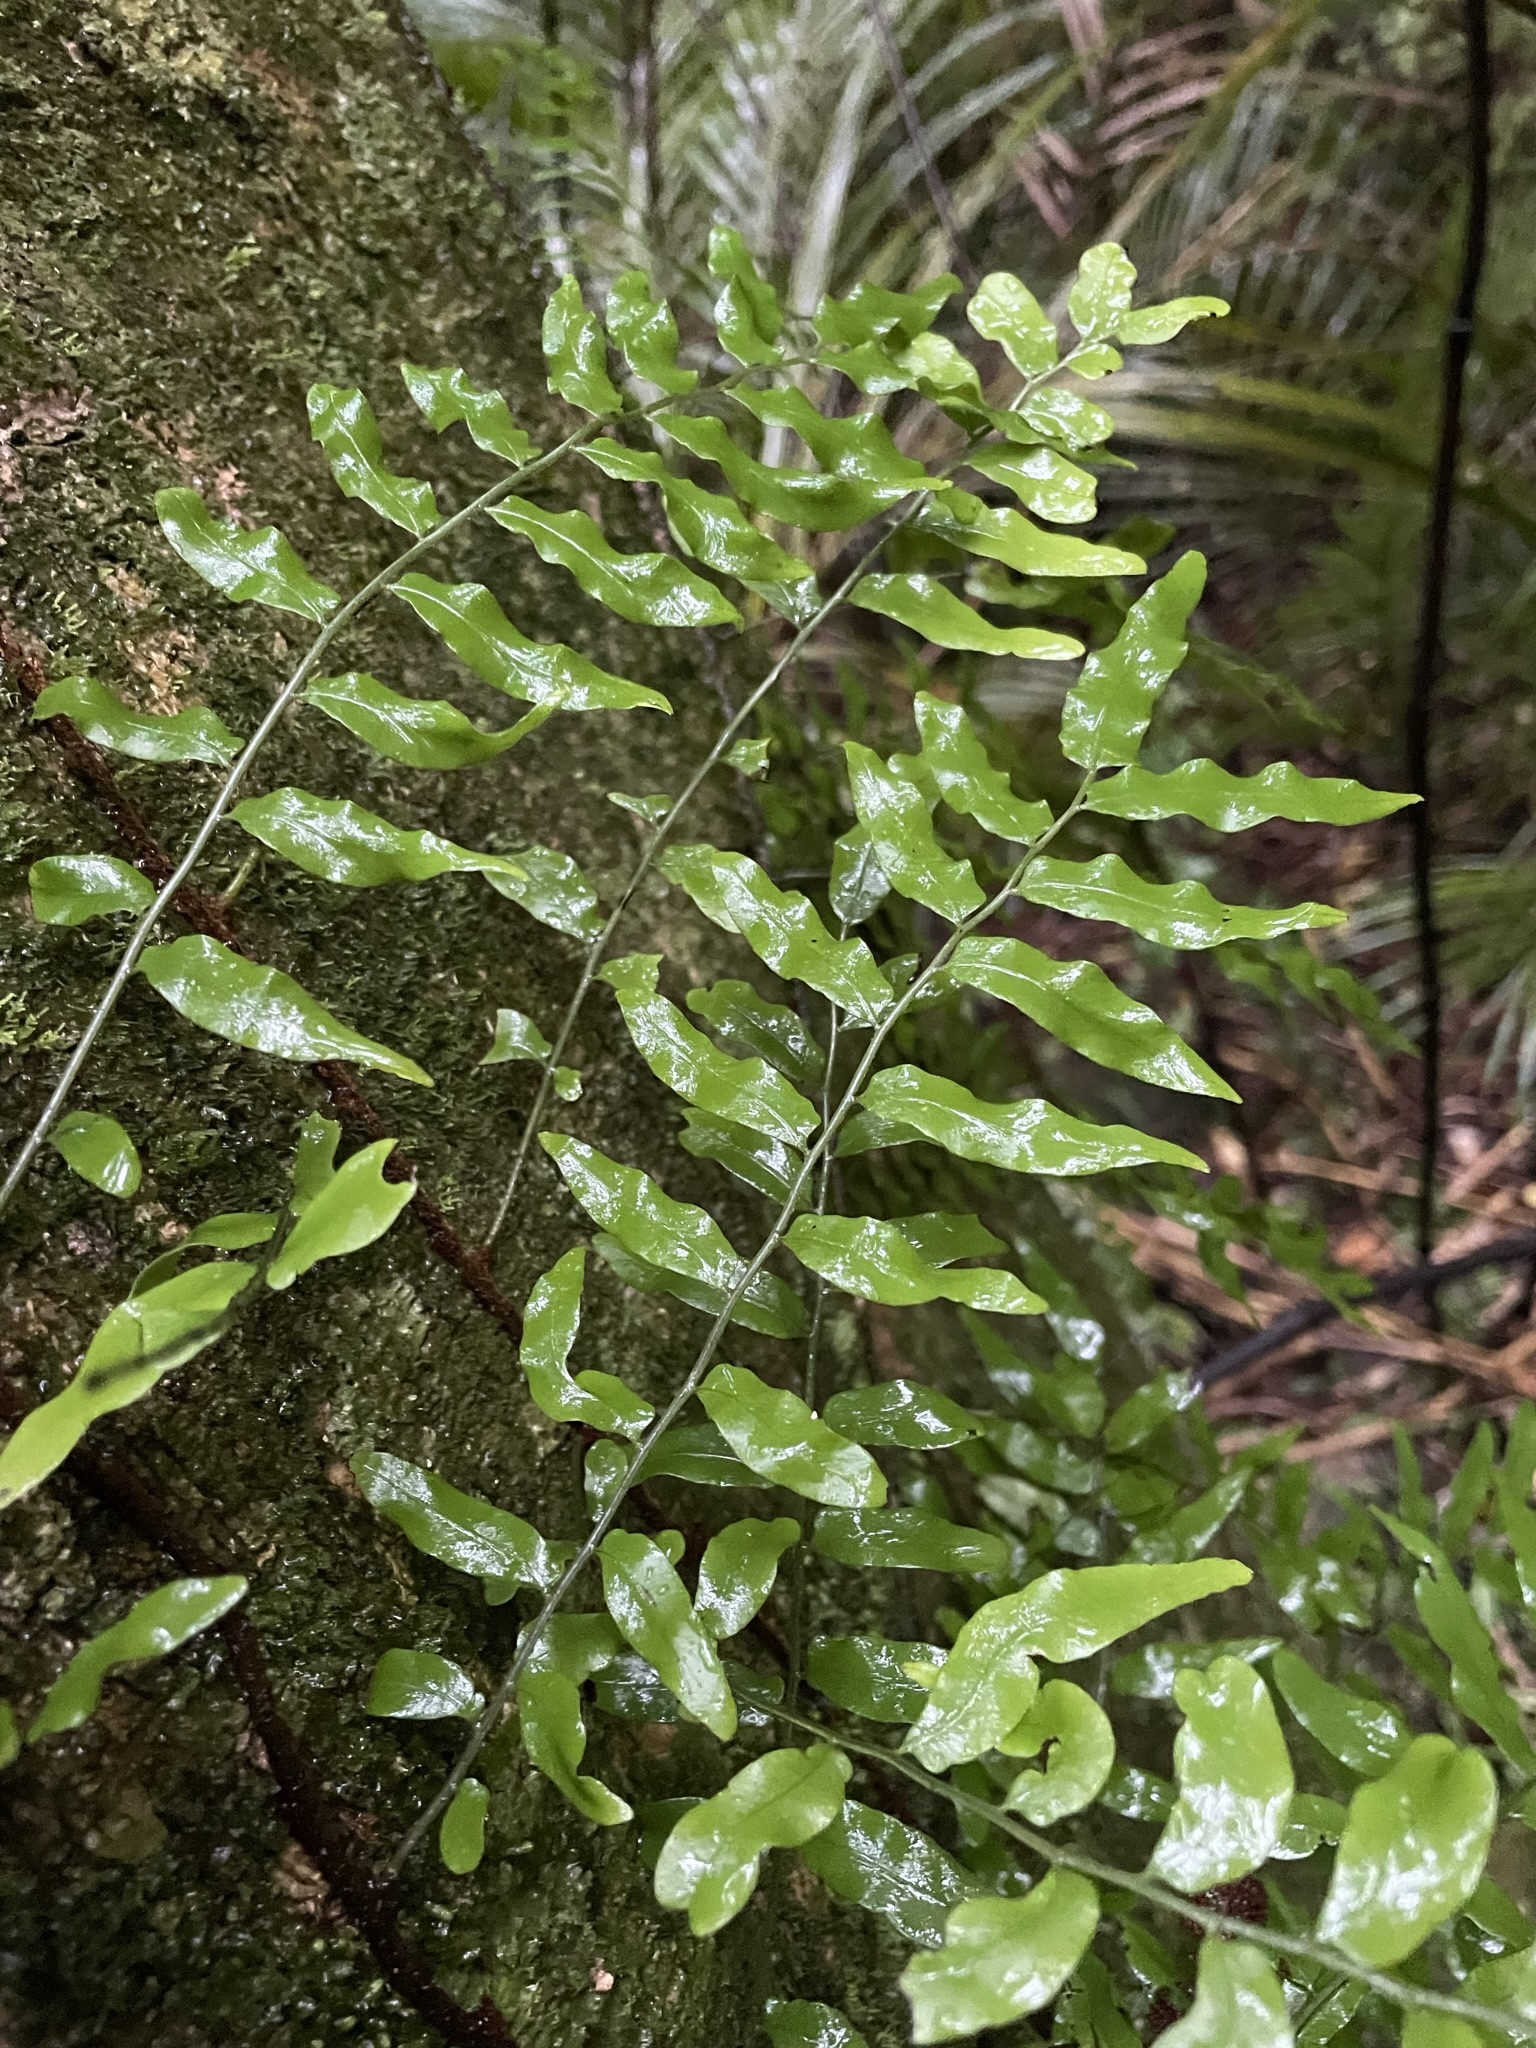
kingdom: Plantae
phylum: Tracheophyta
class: Polypodiopsida
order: Polypodiales
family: Tectariaceae
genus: Arthropteris
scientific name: Arthropteris tenella
